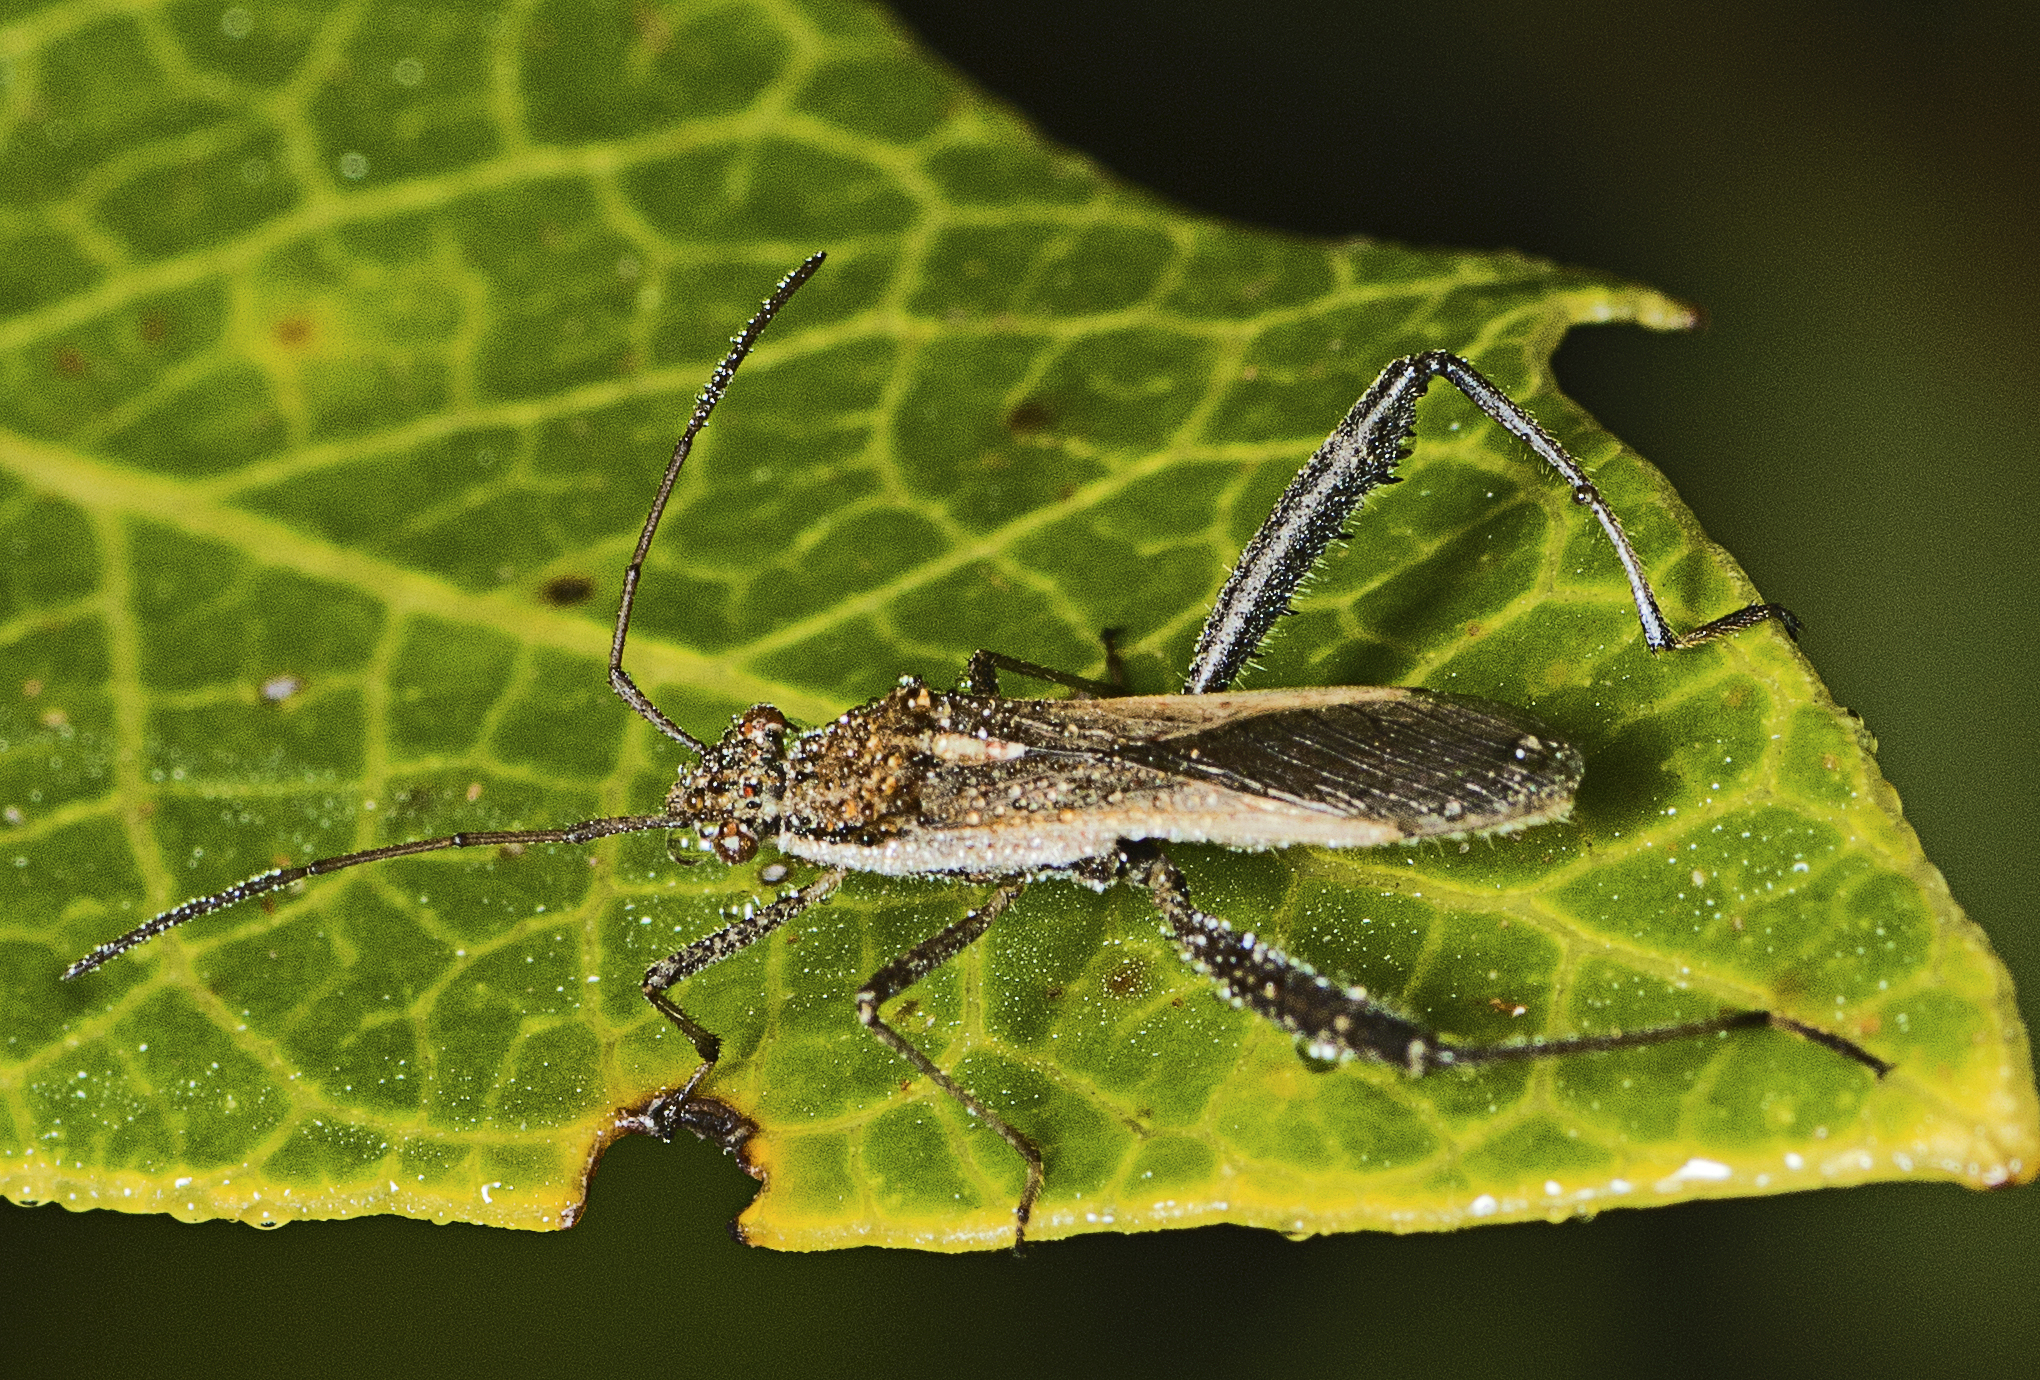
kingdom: Animalia
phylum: Arthropoda
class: Insecta
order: Hemiptera
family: Alydidae
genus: Melanacanthus
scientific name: Melanacanthus scutellaris
